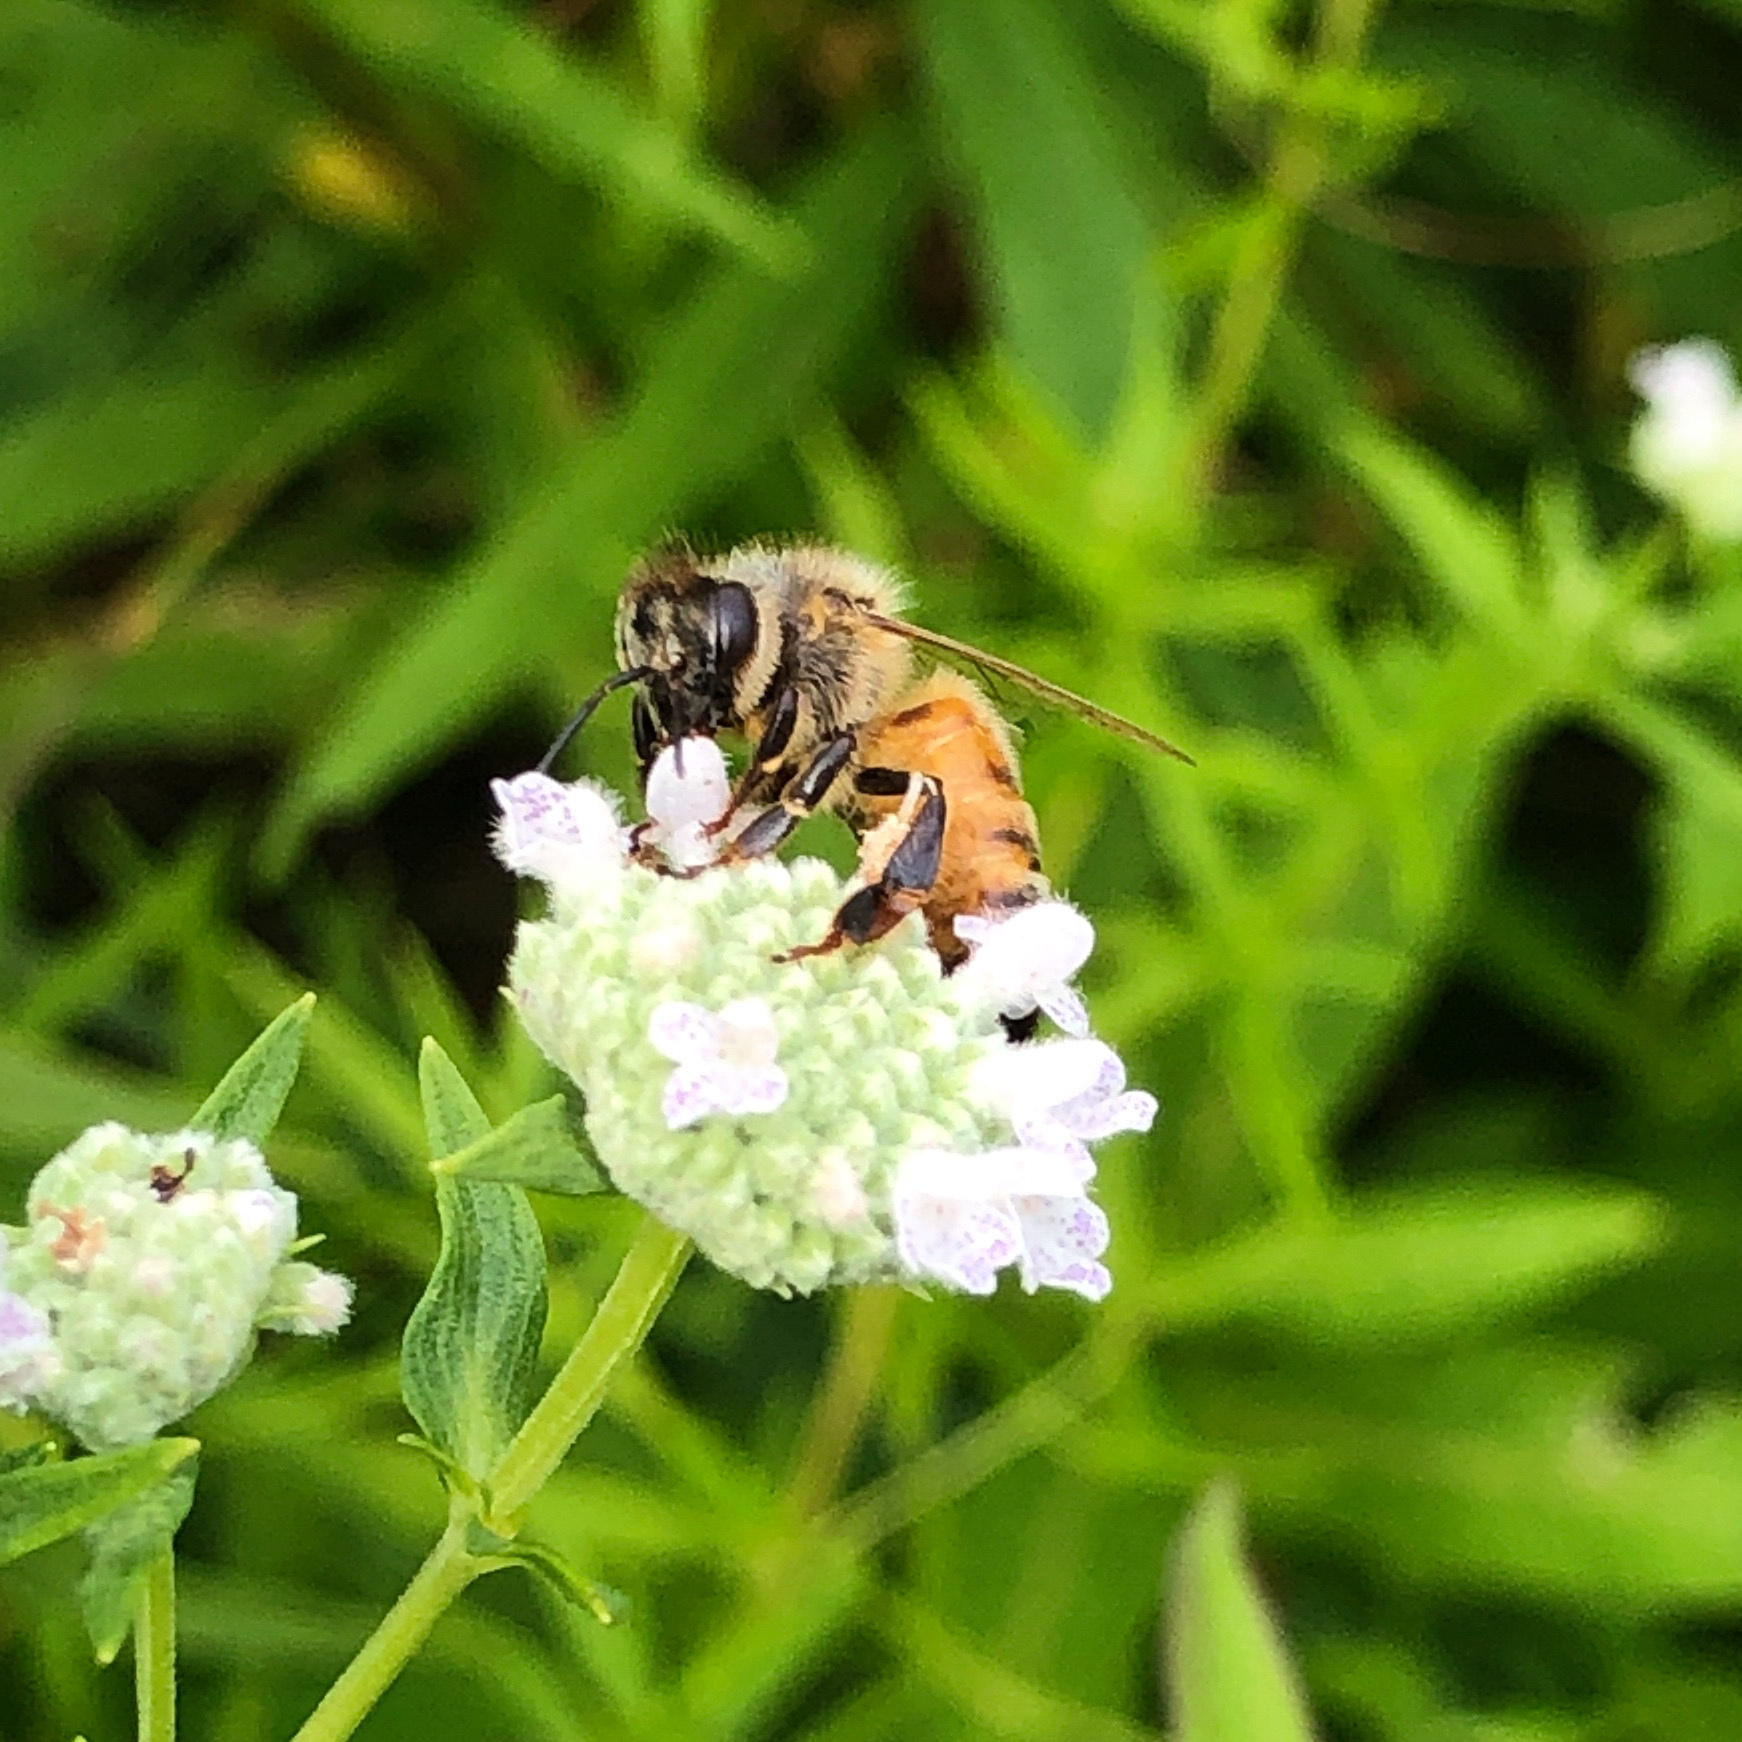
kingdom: Animalia
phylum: Arthropoda
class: Insecta
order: Hymenoptera
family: Apidae
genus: Apis
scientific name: Apis mellifera
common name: Honey bee
